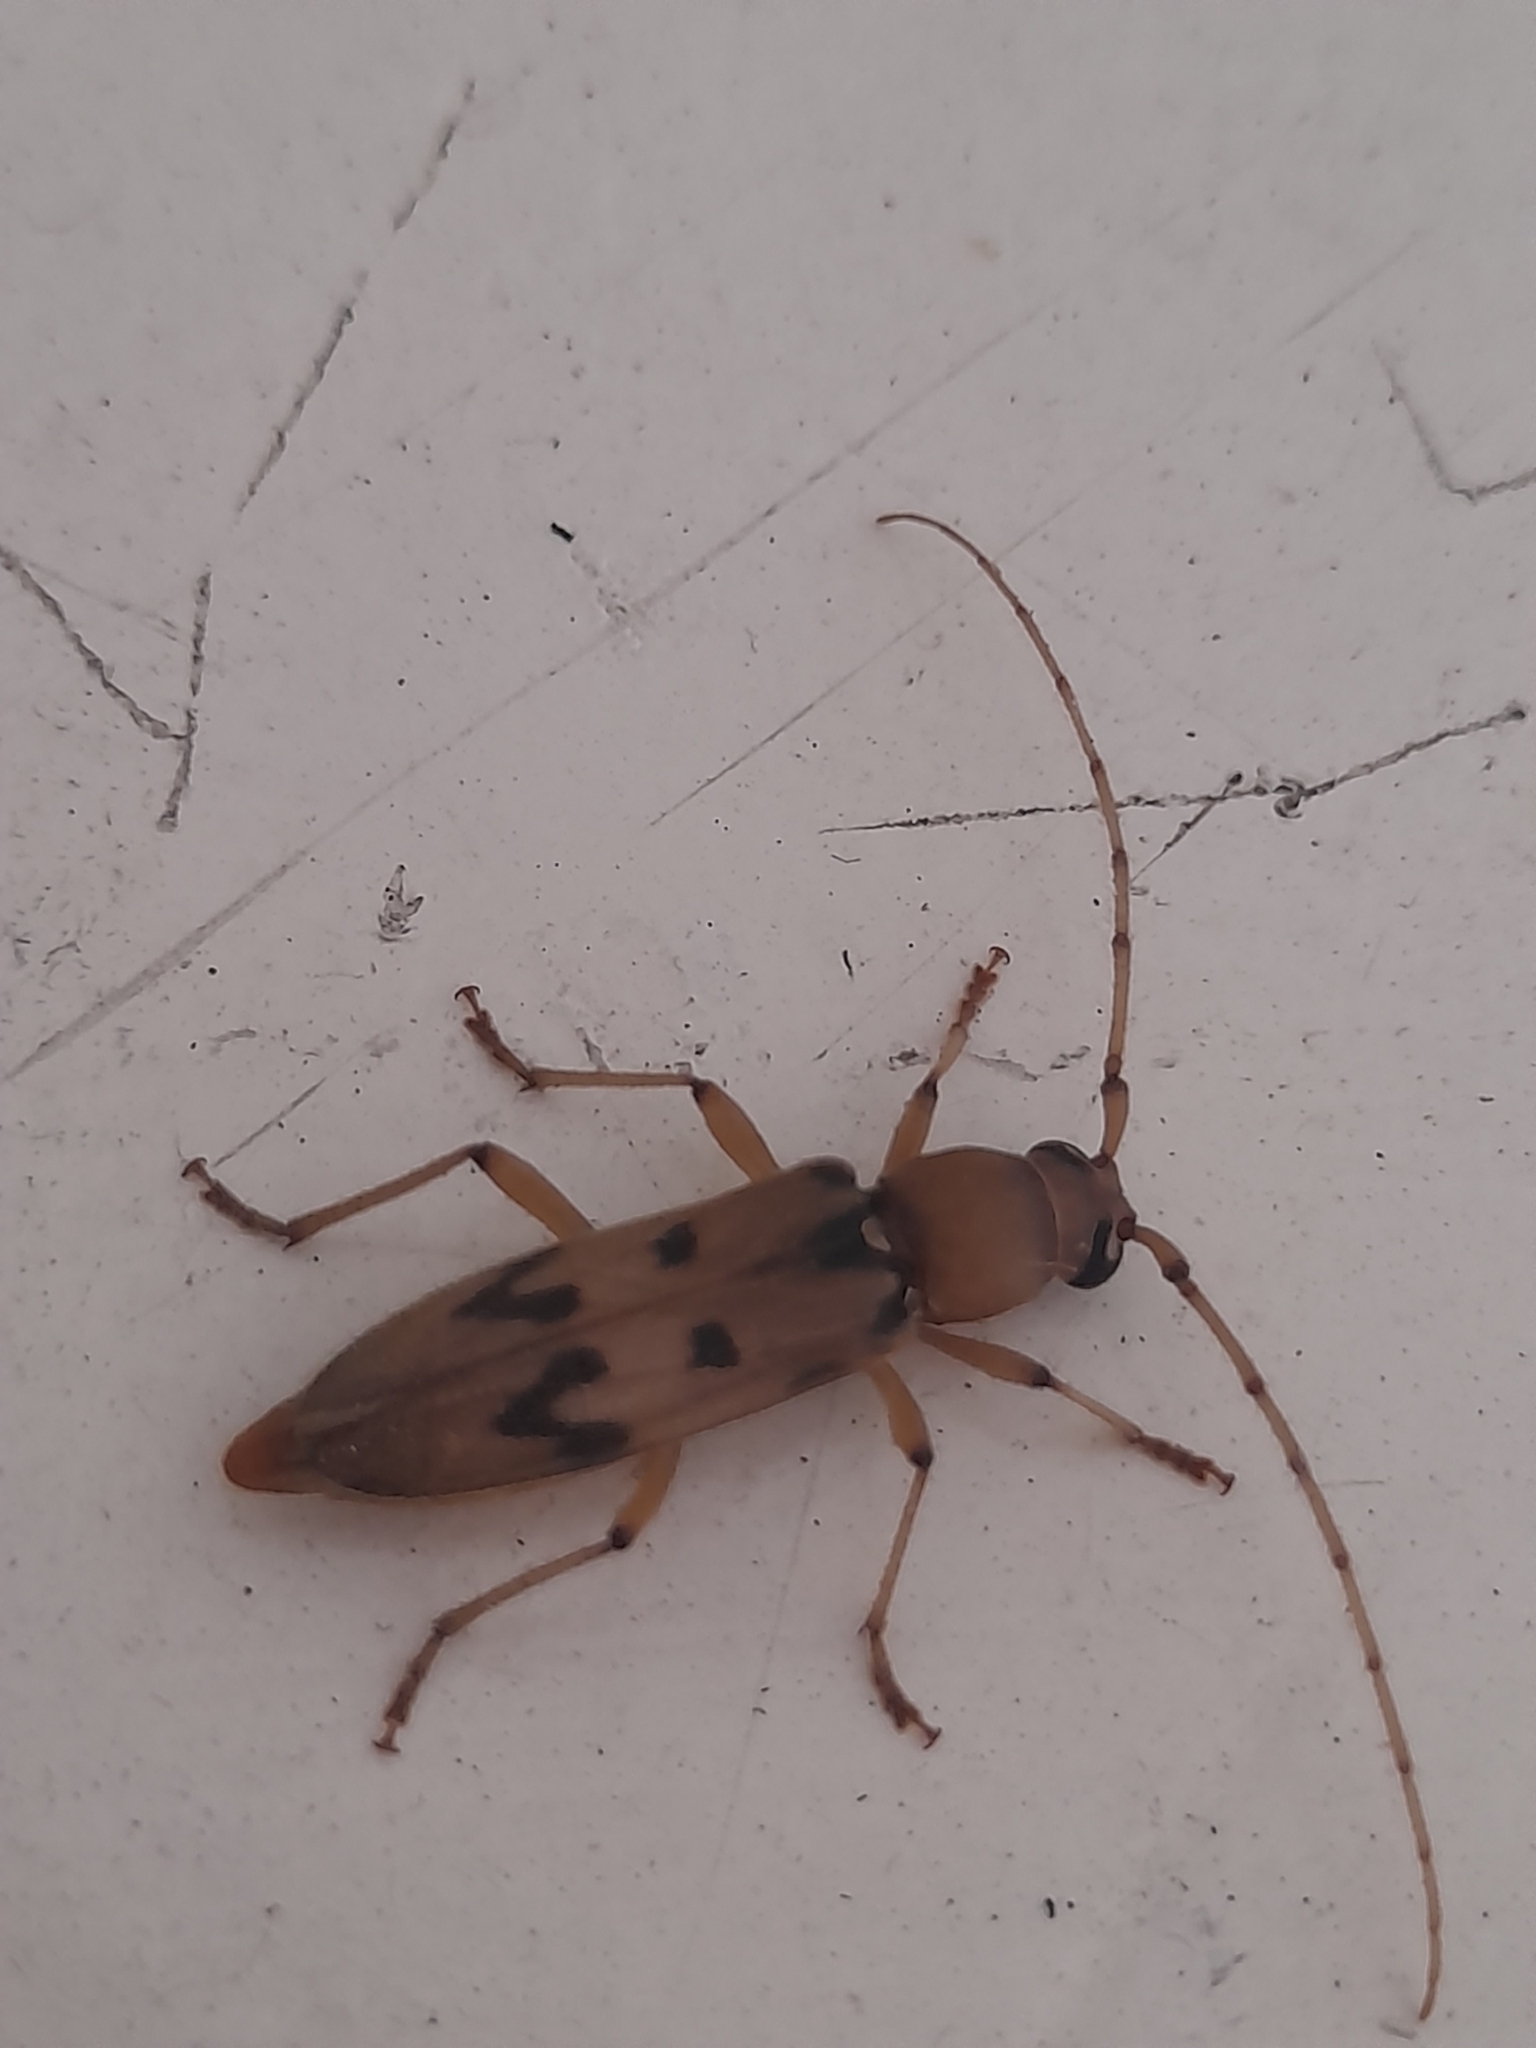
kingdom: Animalia
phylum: Arthropoda
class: Insecta
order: Coleoptera
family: Cerambycidae
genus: Achryson
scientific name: Achryson surinamum
